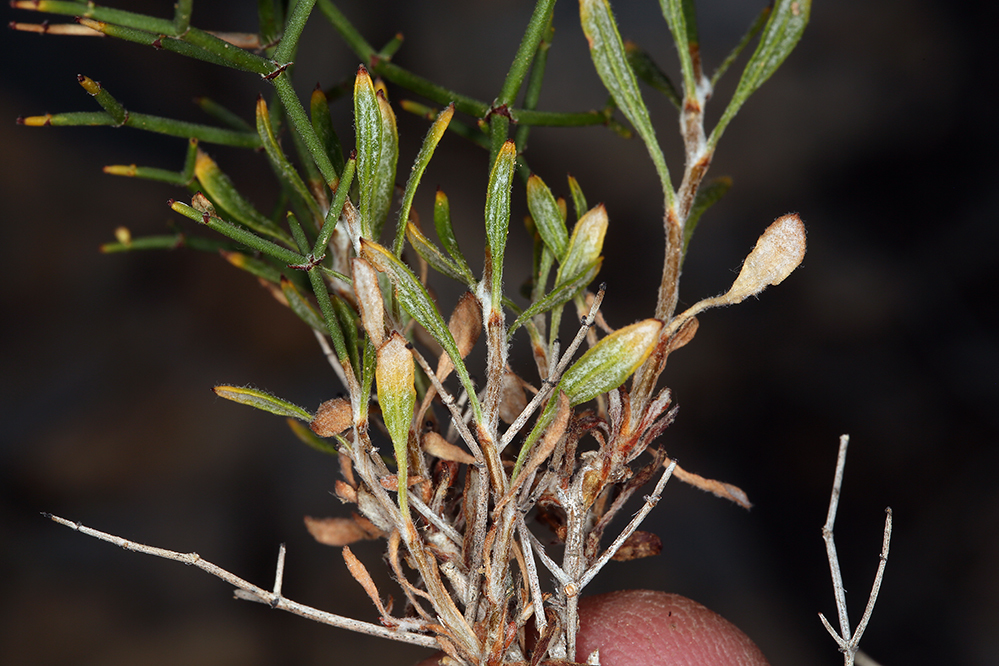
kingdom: Plantae
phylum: Tracheophyta
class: Magnoliopsida
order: Caryophyllales
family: Polygonaceae
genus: Eriogonum
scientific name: Eriogonum heermannii
